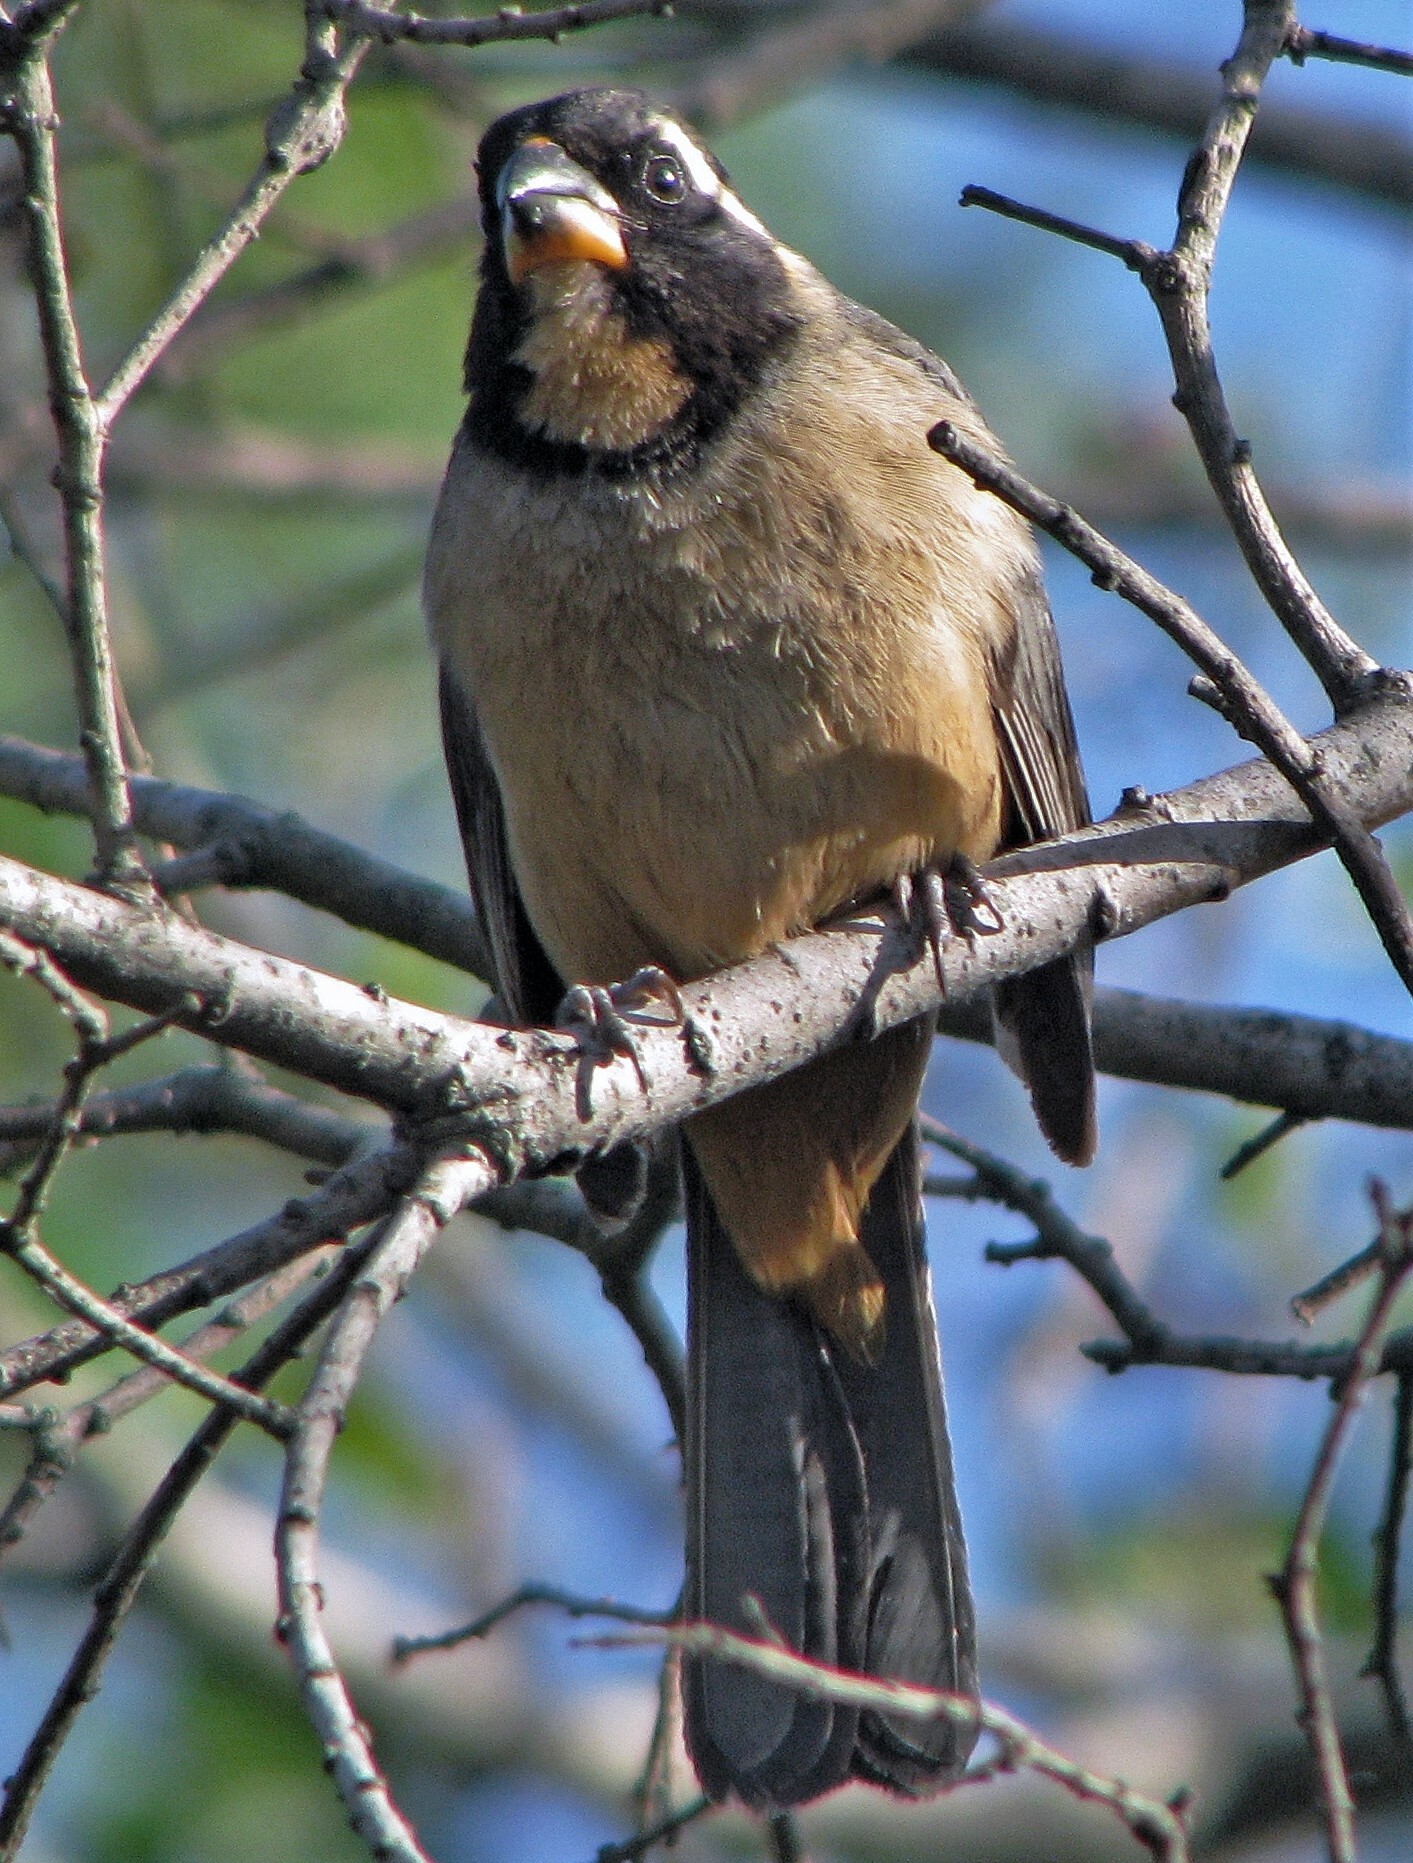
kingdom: Animalia
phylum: Chordata
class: Aves
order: Passeriformes
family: Thraupidae
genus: Saltator
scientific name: Saltator aurantiirostris
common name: Golden-billed saltator
